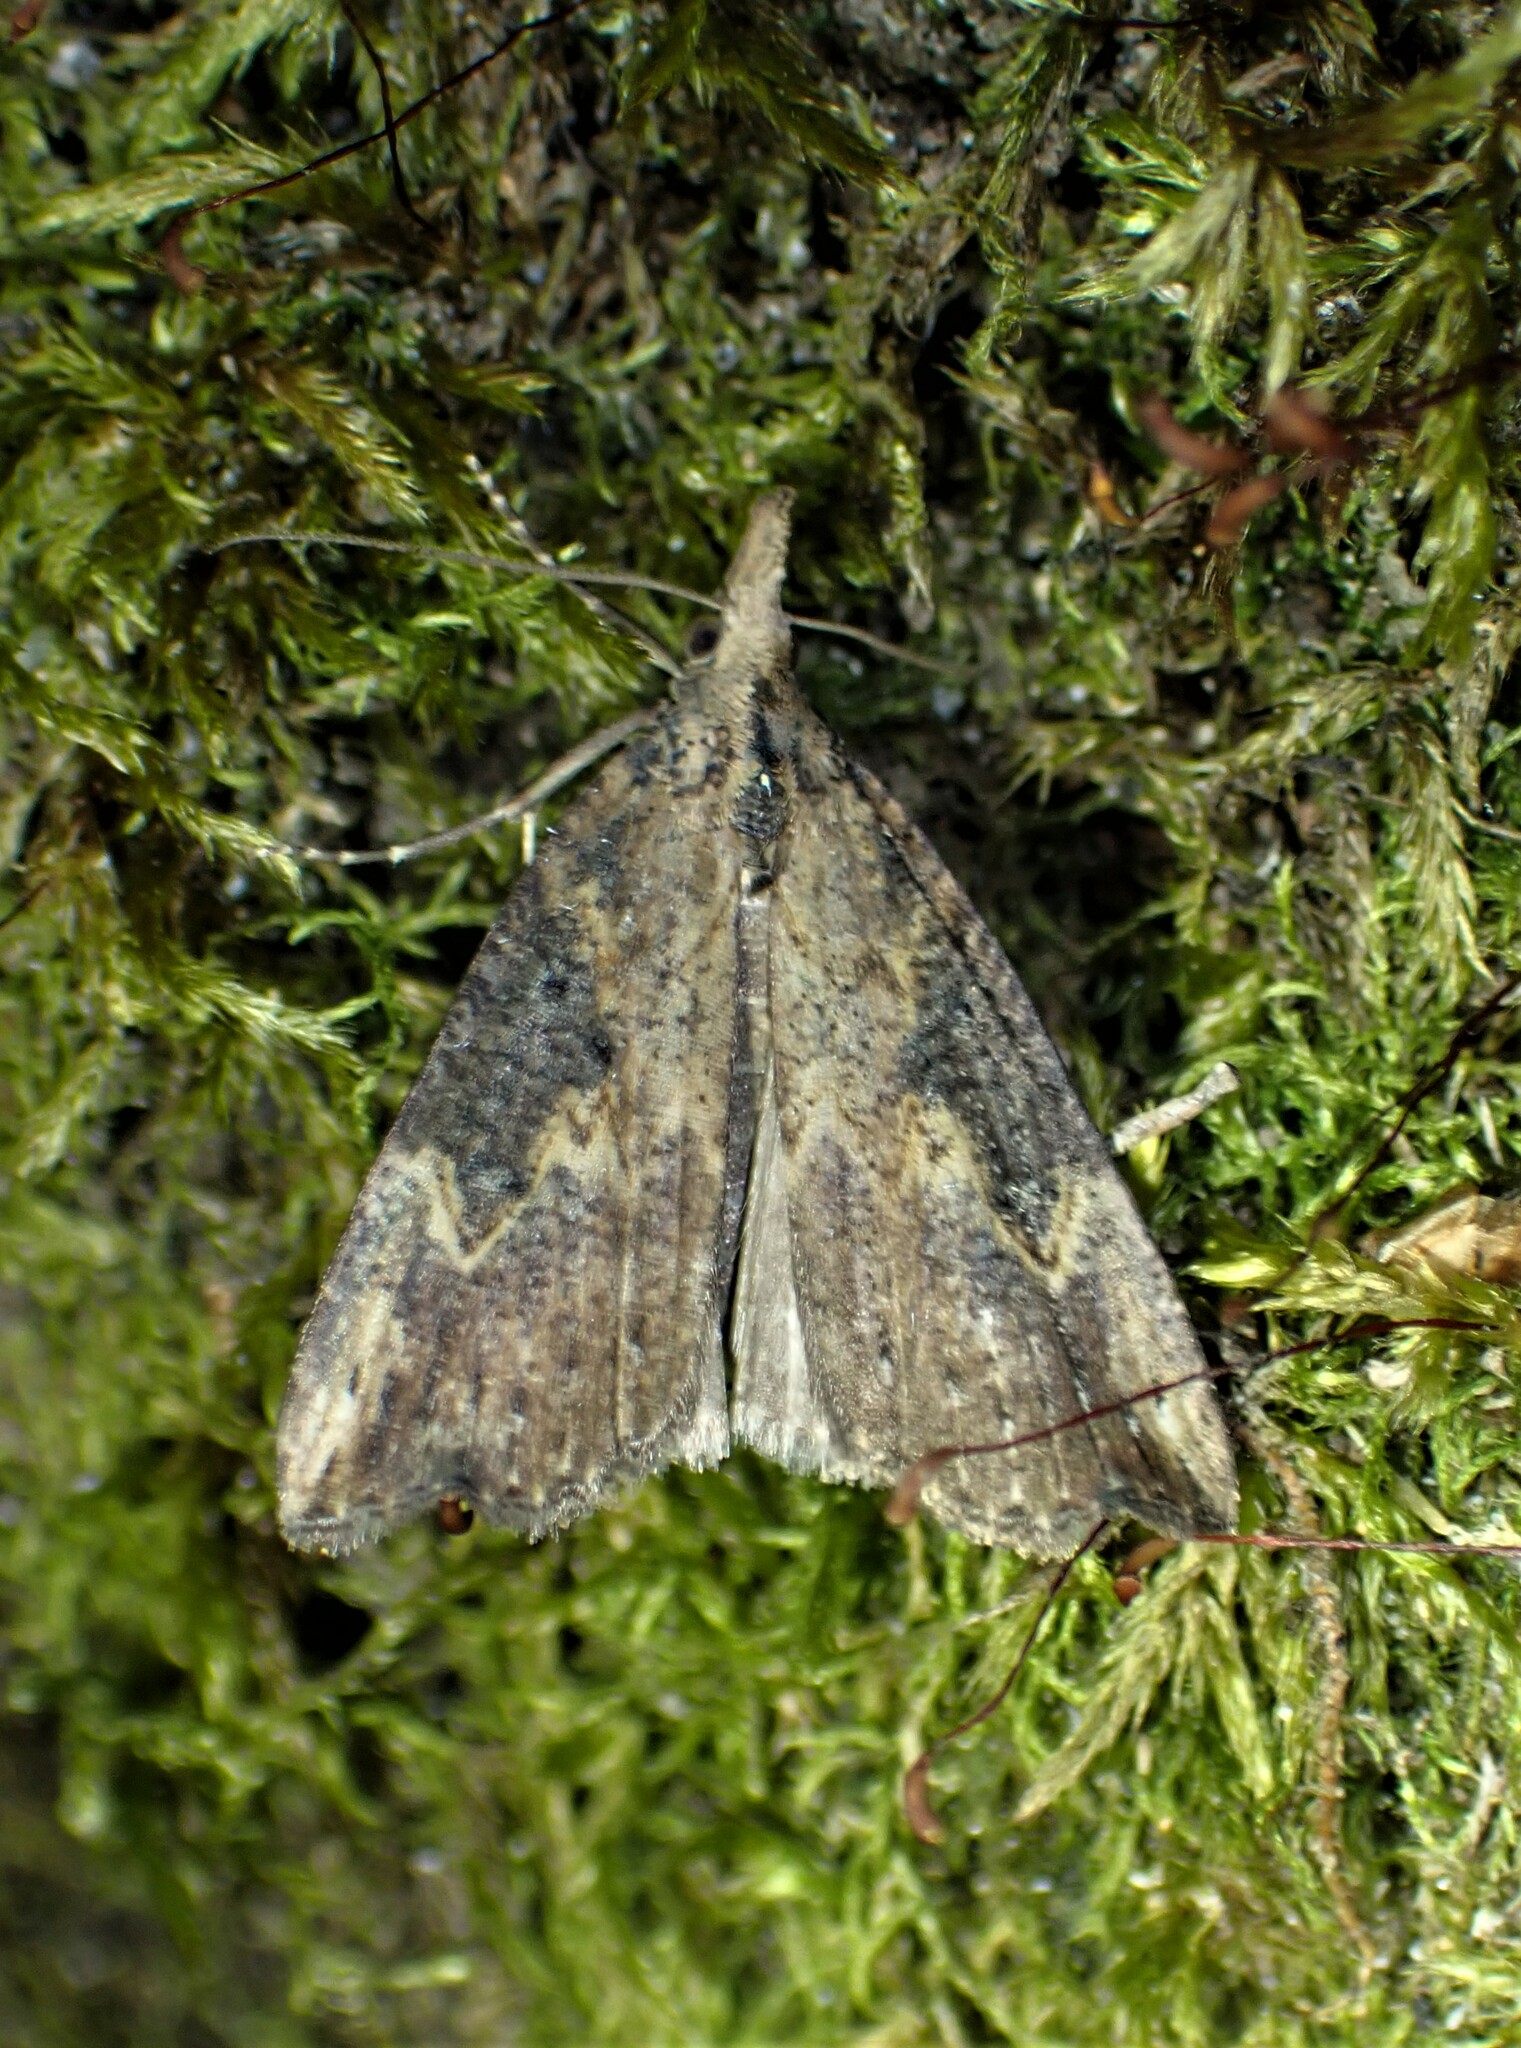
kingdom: Animalia
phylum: Arthropoda
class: Insecta
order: Lepidoptera
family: Erebidae
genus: Hypena
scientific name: Hypena humuli
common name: Hop vine snout
